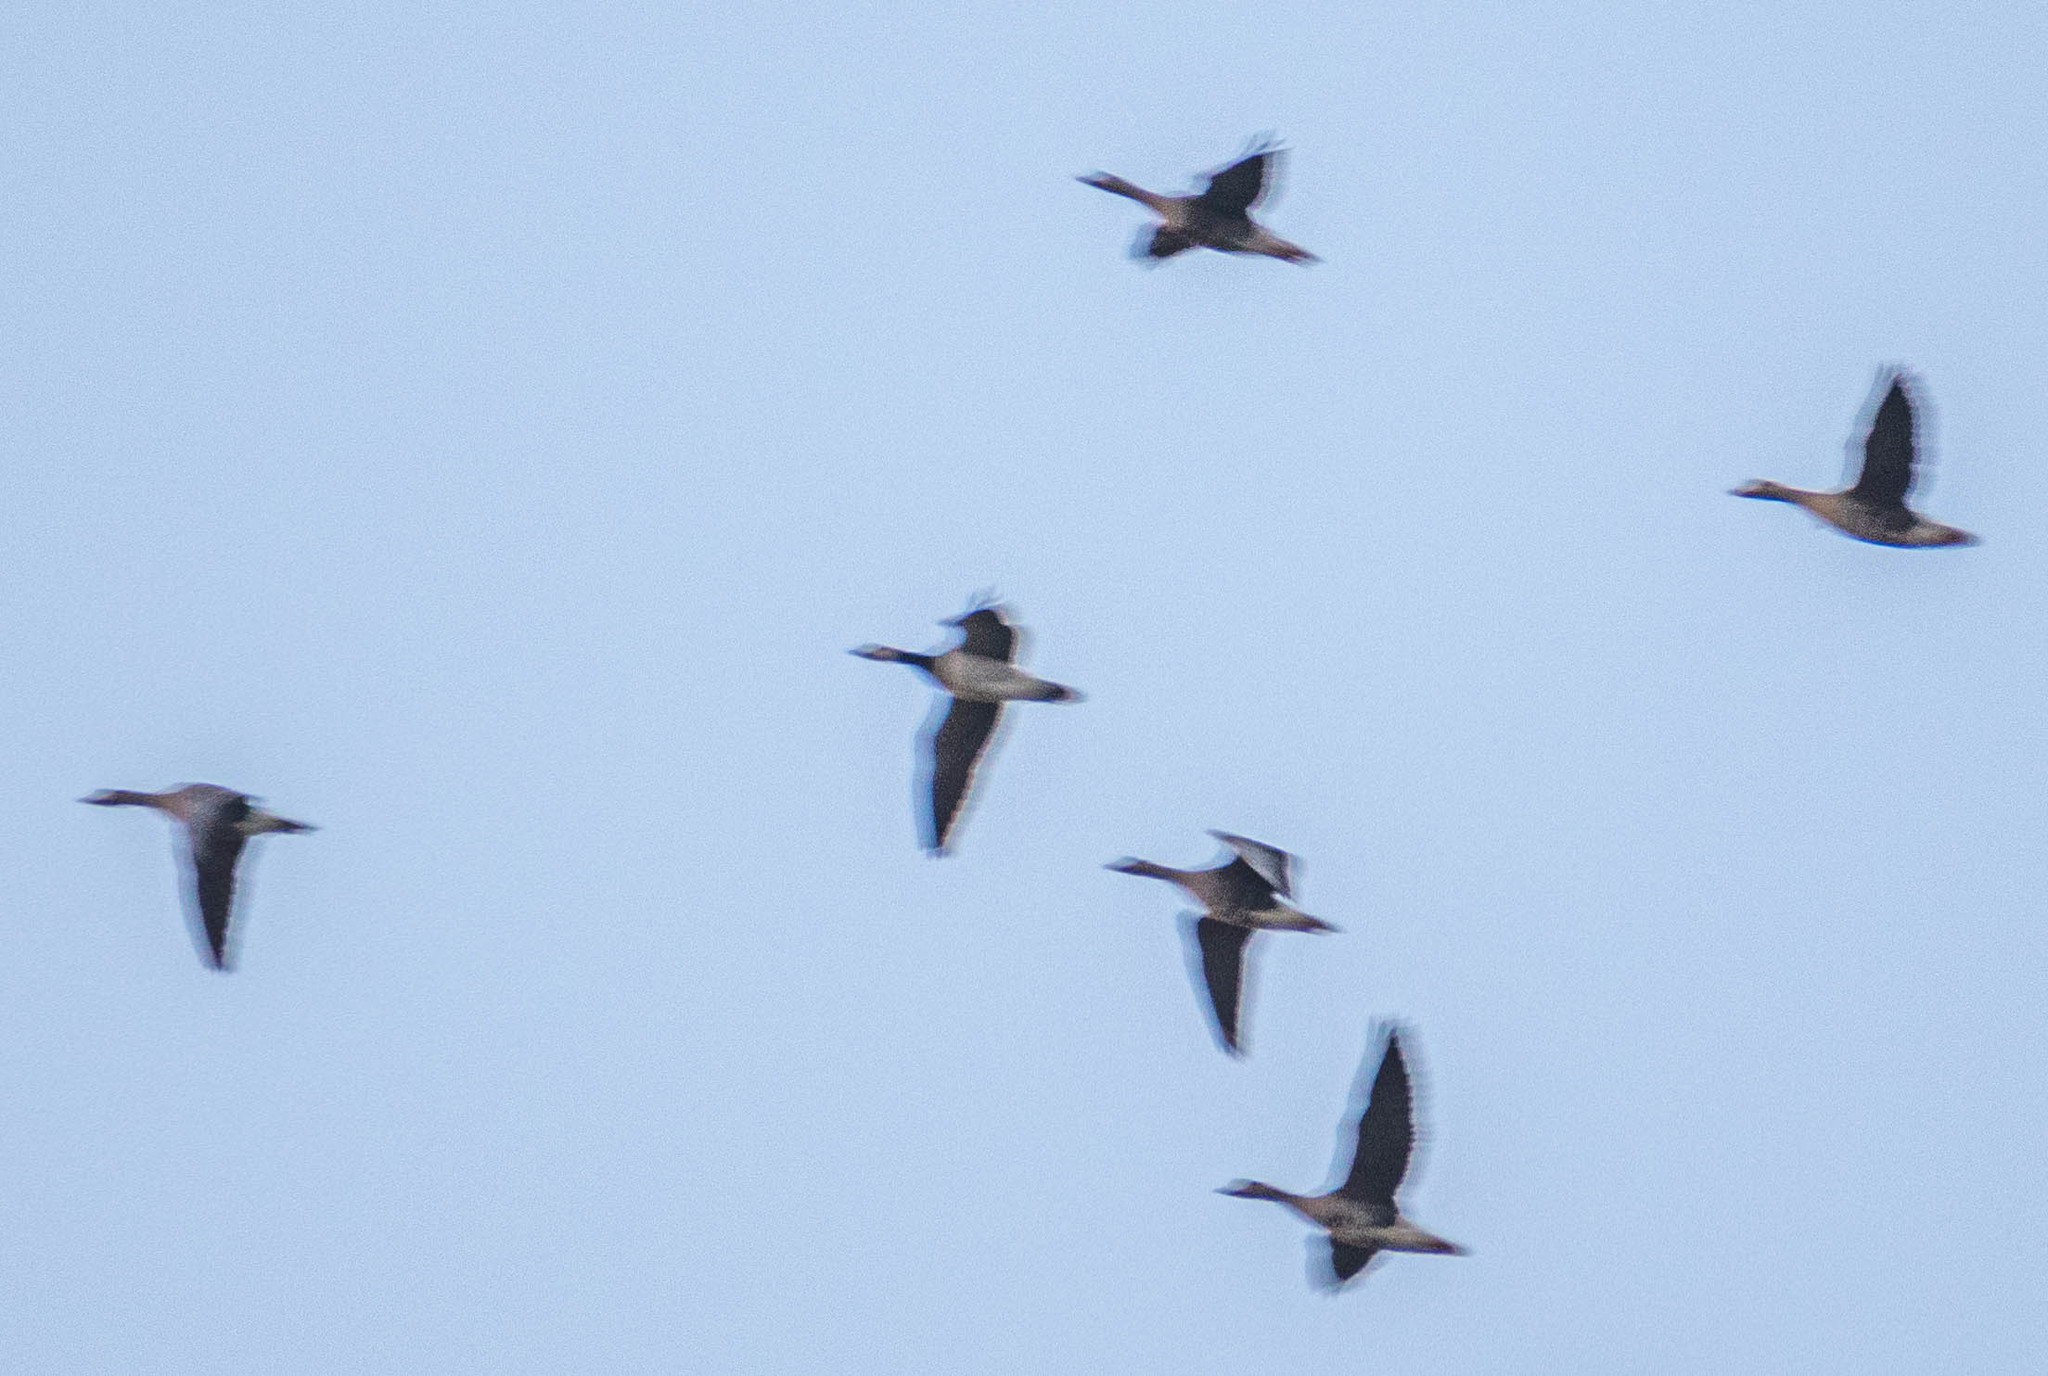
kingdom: Animalia
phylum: Chordata
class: Aves
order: Anseriformes
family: Anatidae
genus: Branta
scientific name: Branta leucopsis
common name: Barnacle goose
